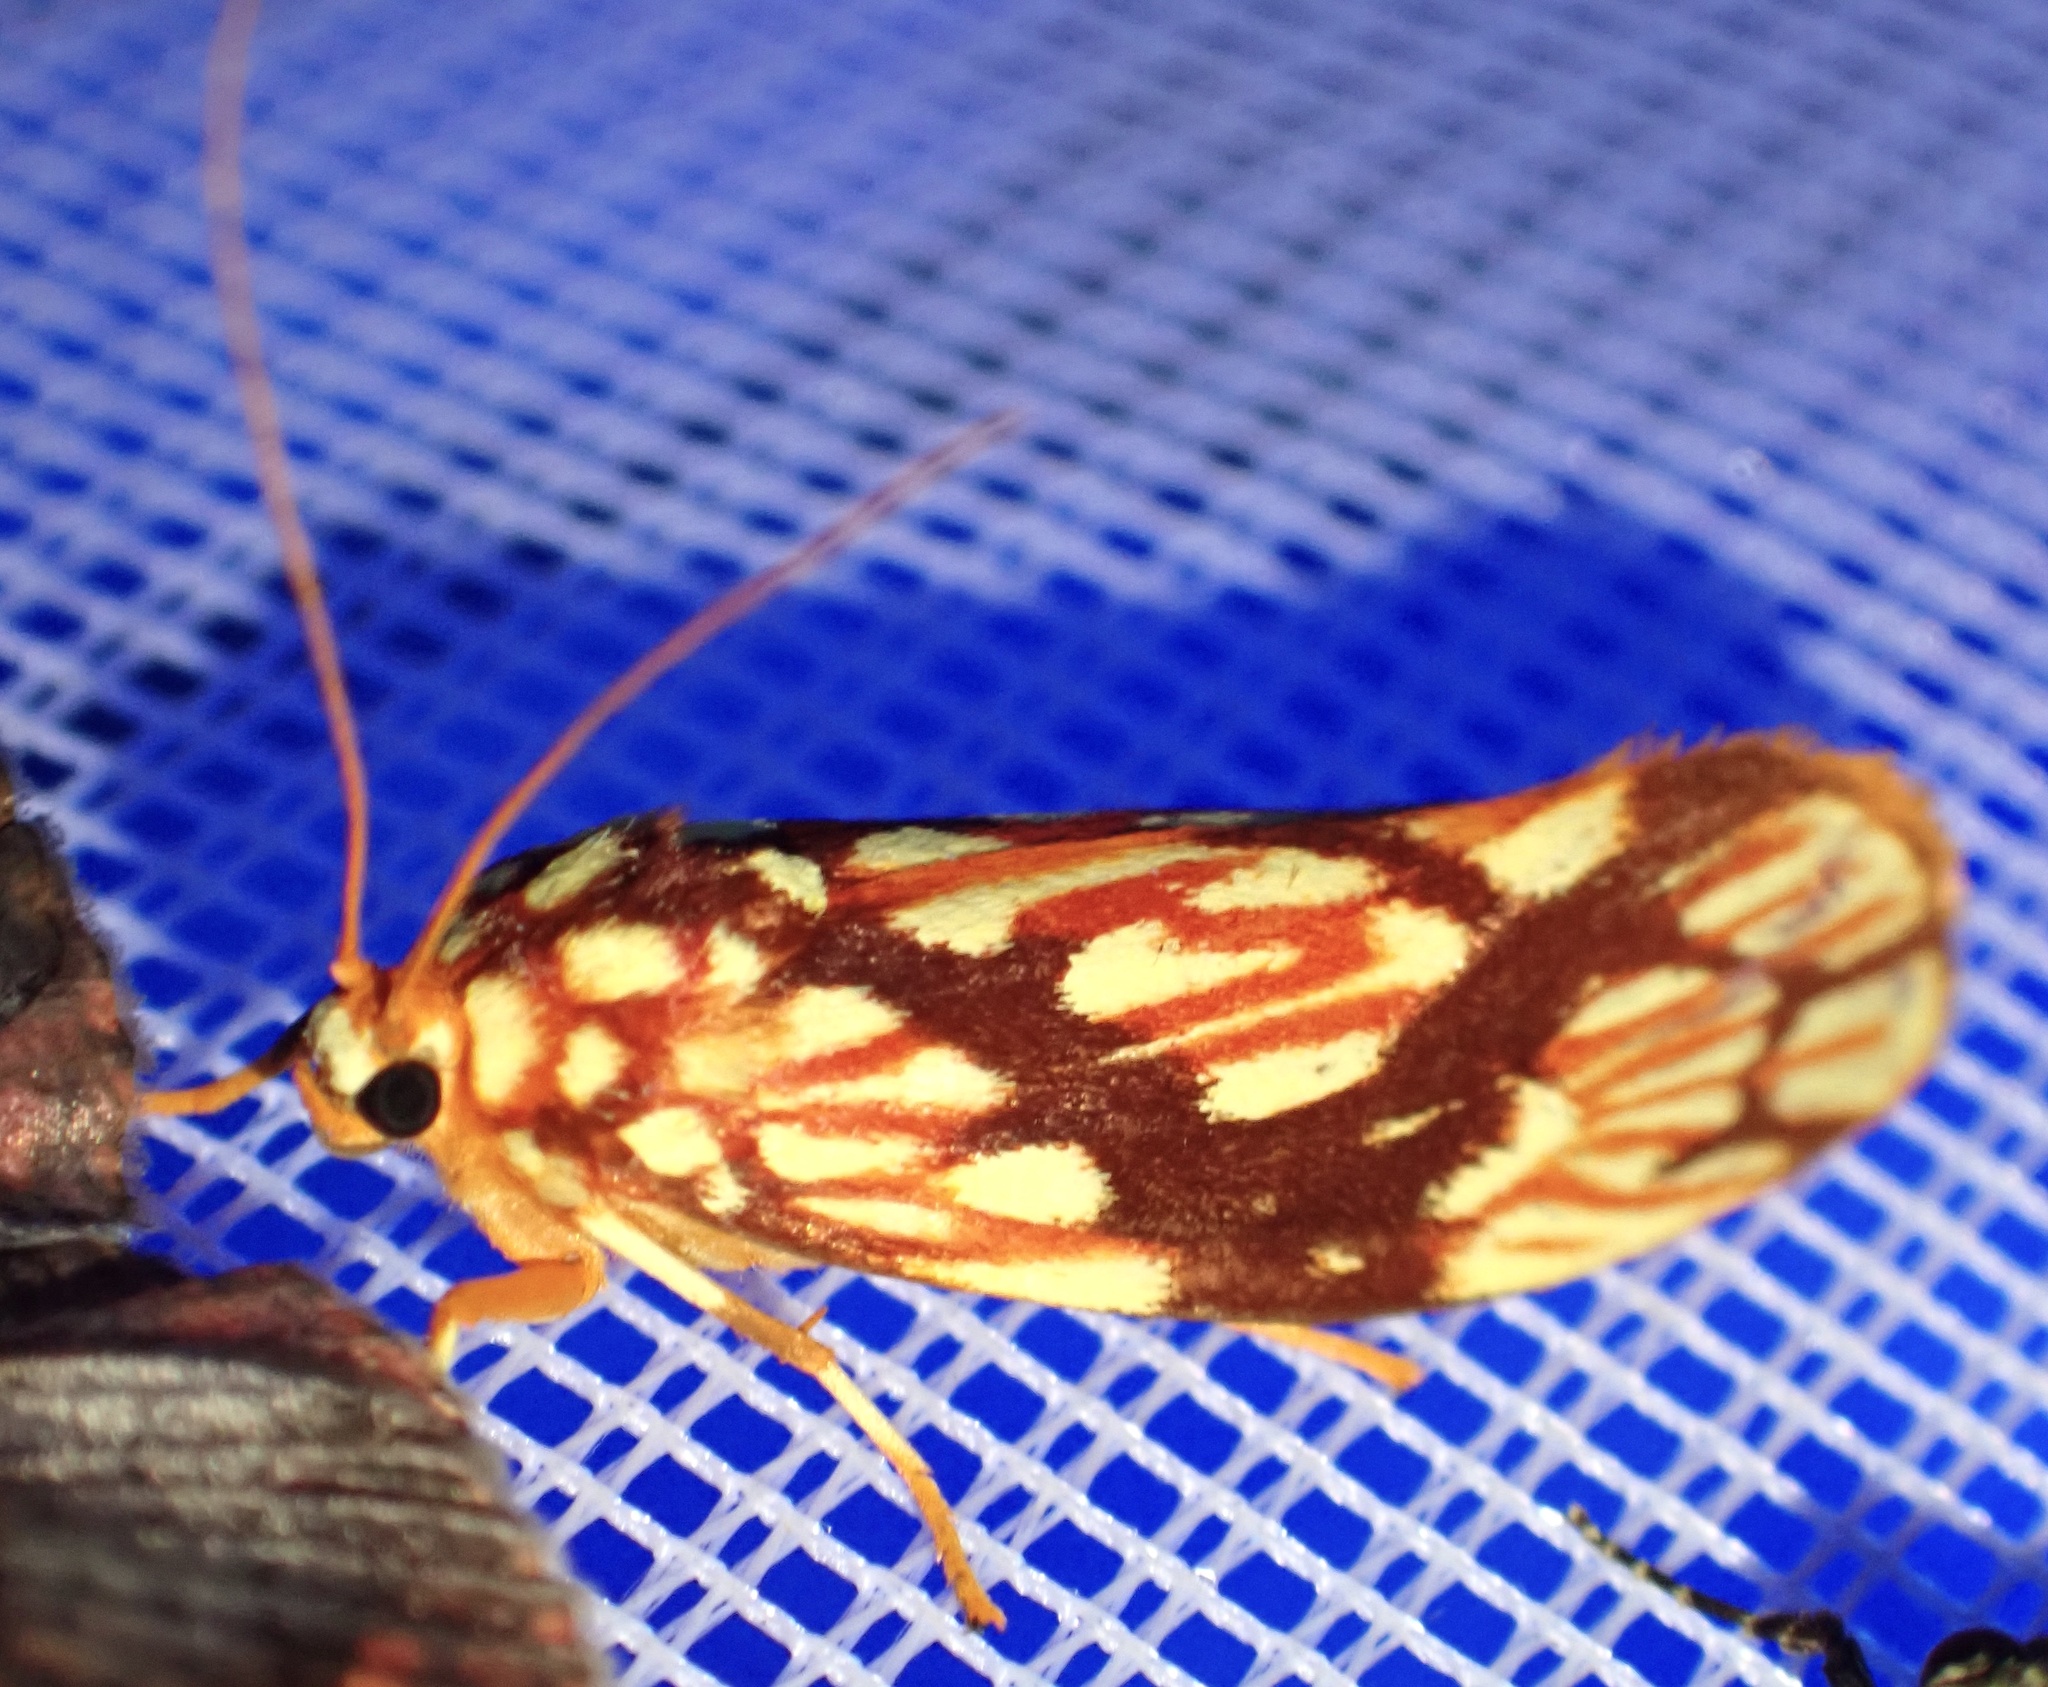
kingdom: Animalia
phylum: Arthropoda
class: Insecta
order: Lepidoptera
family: Plutellidae
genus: Zarcinia
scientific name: Zarcinia triexoda
